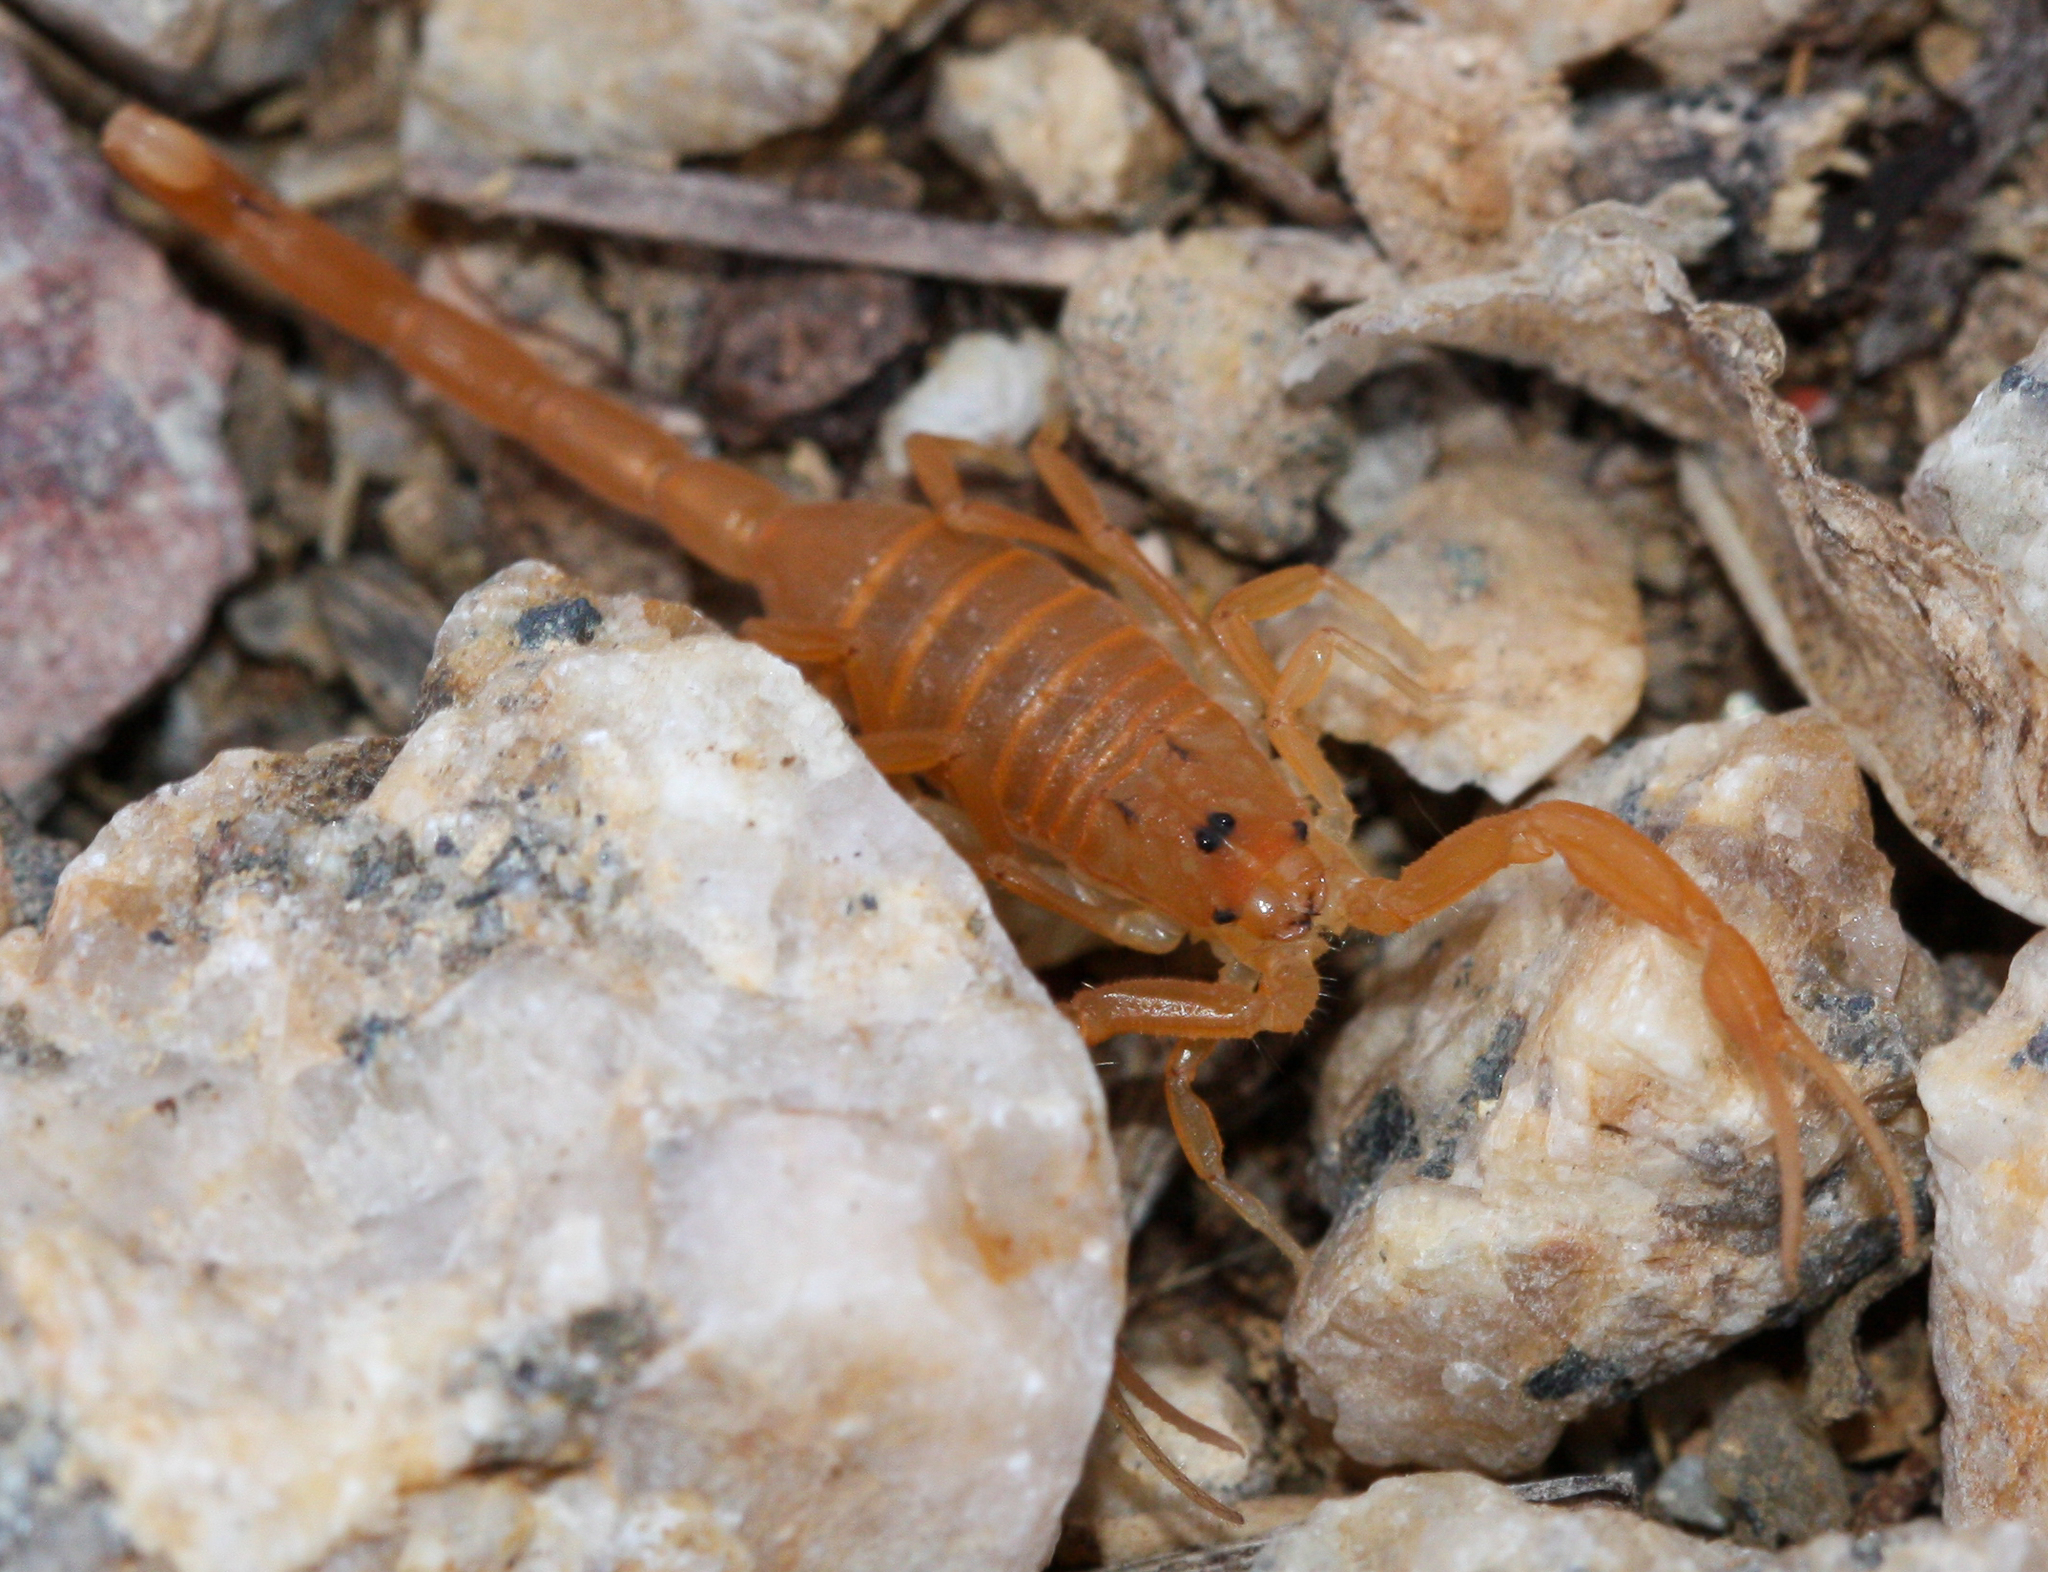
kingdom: Animalia
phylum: Arthropoda
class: Arachnida
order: Scorpiones
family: Buthidae
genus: Centruroides
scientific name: Centruroides sculpturatus
